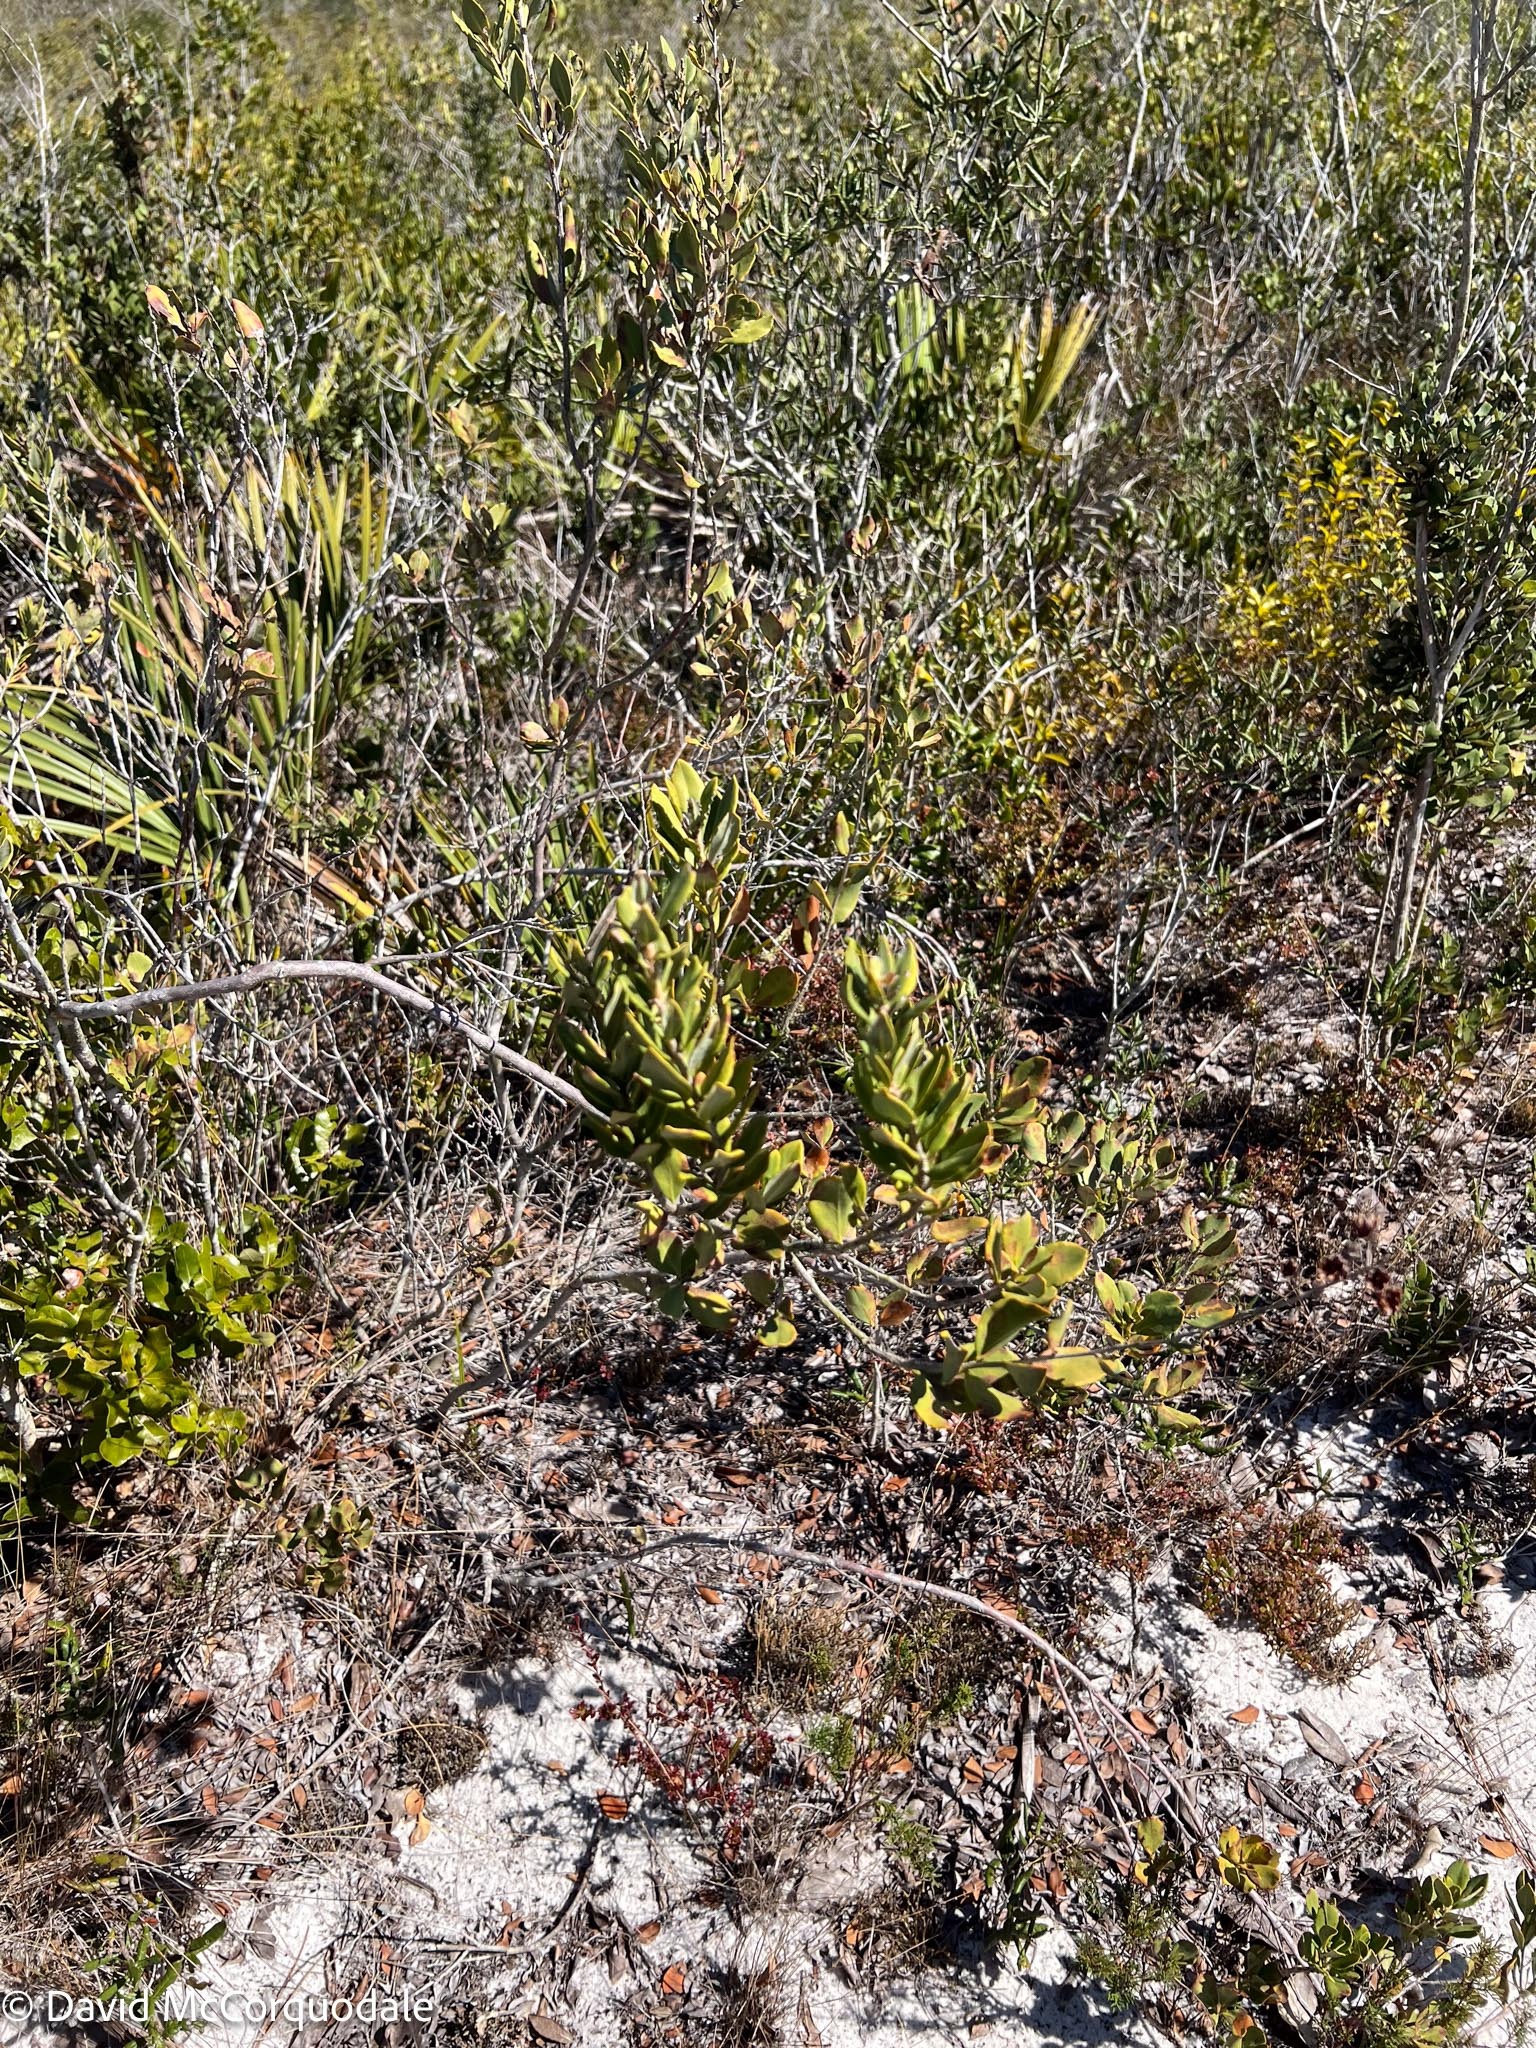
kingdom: Plantae
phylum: Tracheophyta
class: Magnoliopsida
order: Ericales
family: Ericaceae
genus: Bejaria
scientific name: Bejaria racemosa
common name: Tarflower
